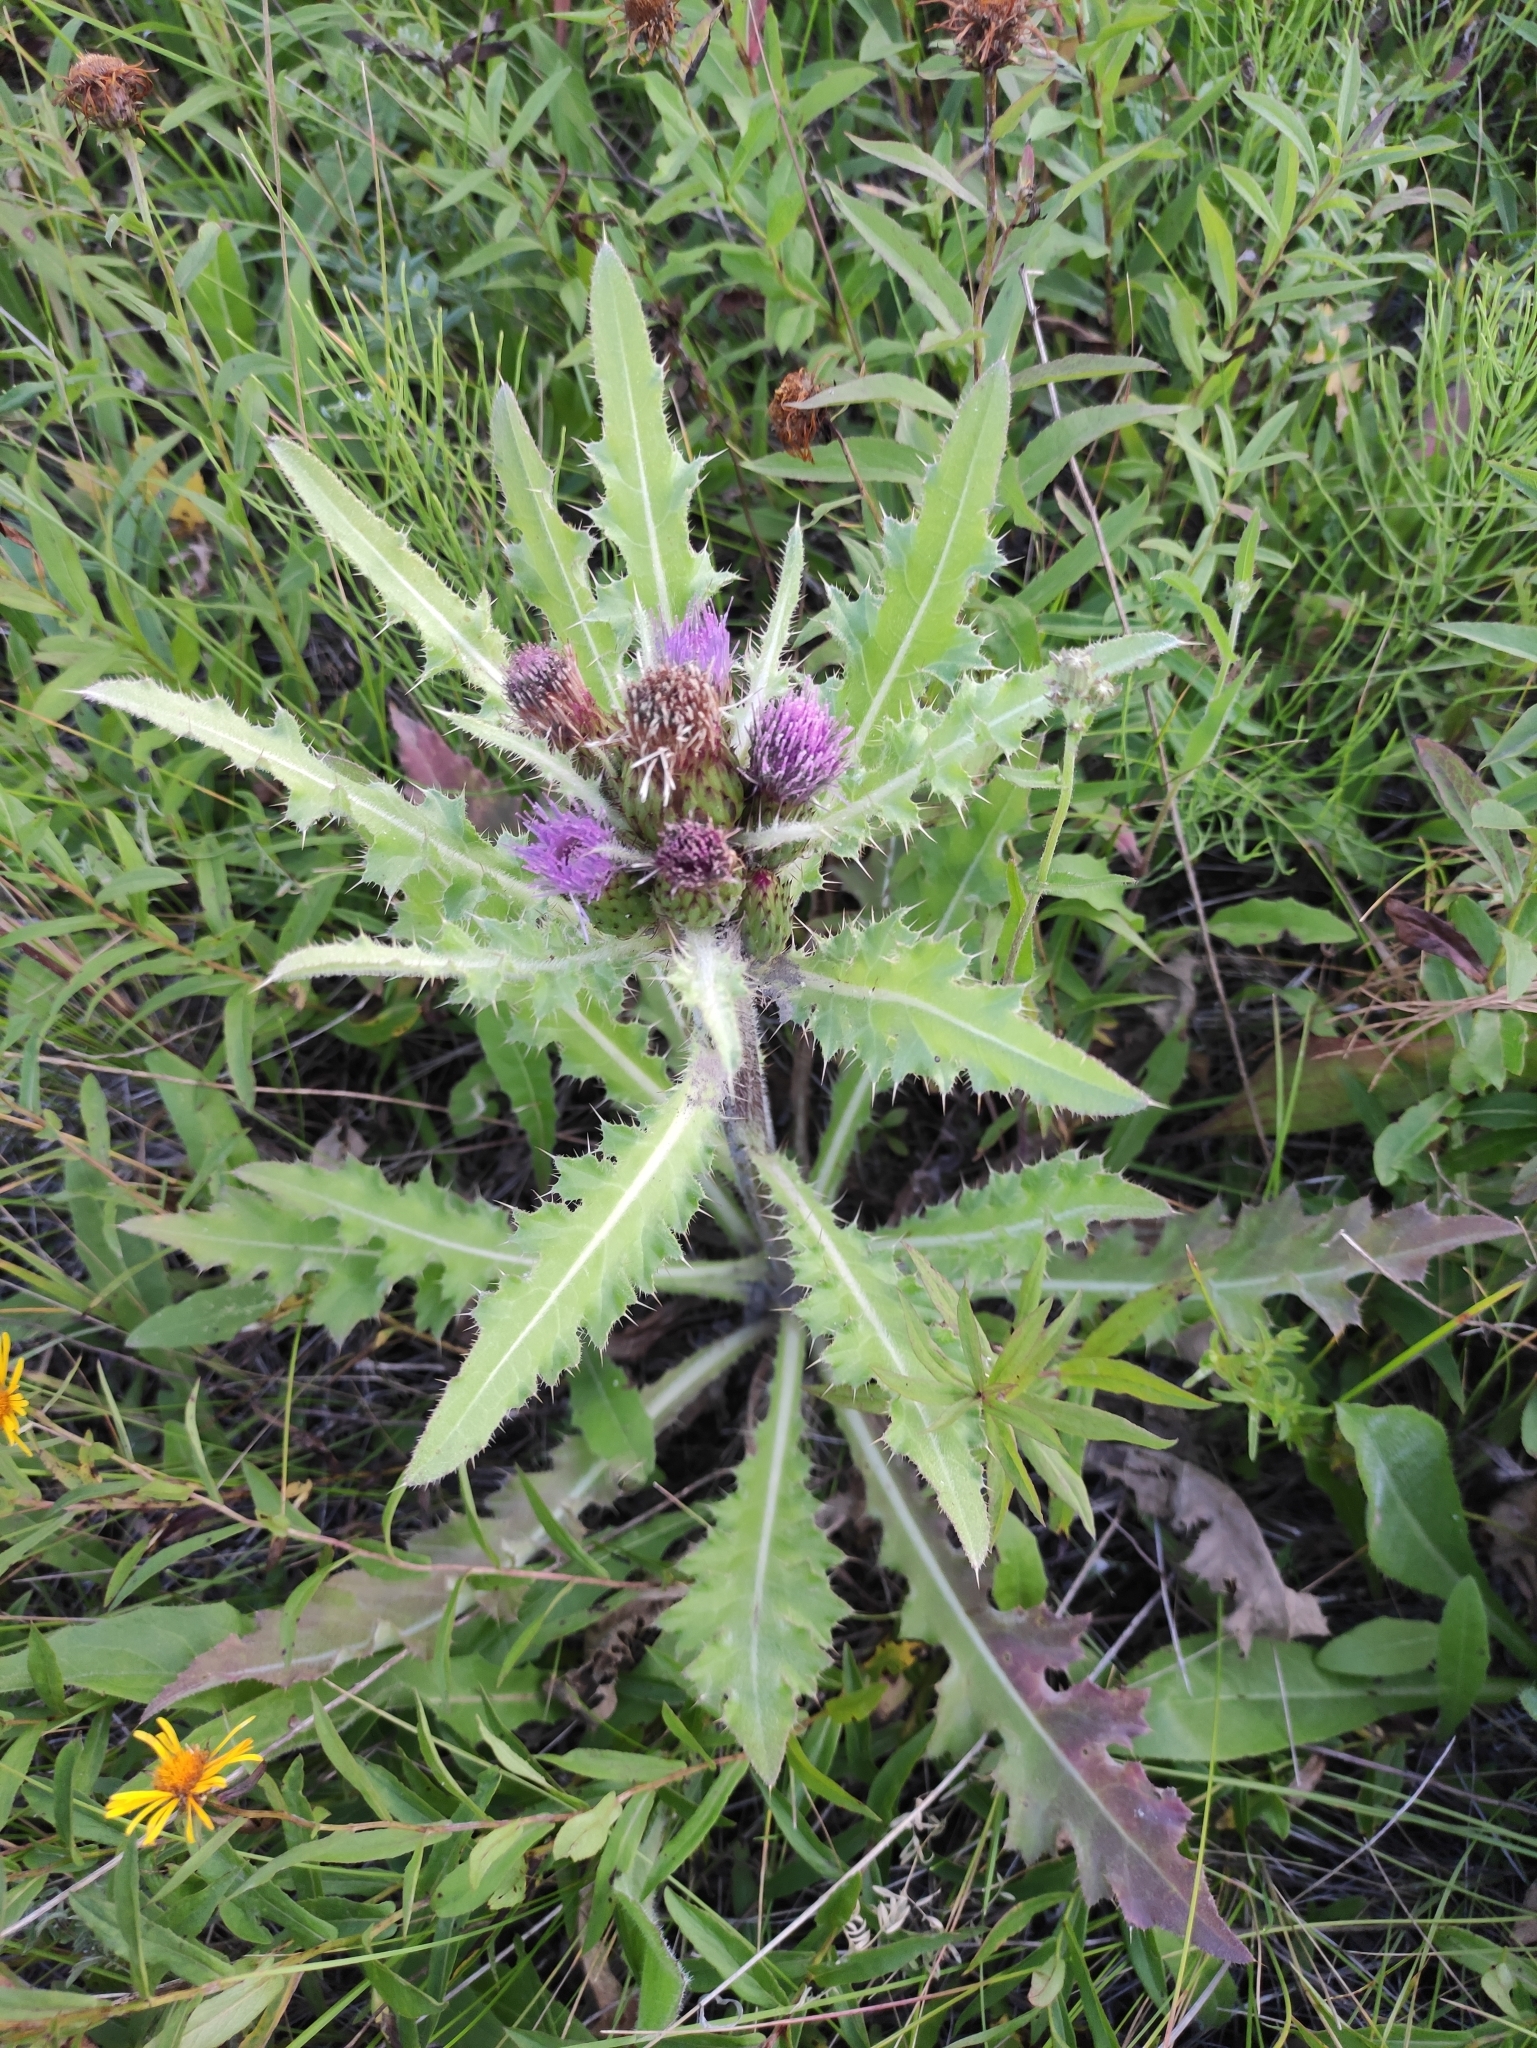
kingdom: Plantae
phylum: Tracheophyta
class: Magnoliopsida
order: Asterales
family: Asteraceae
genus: Cirsium
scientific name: Cirsium esculentum
